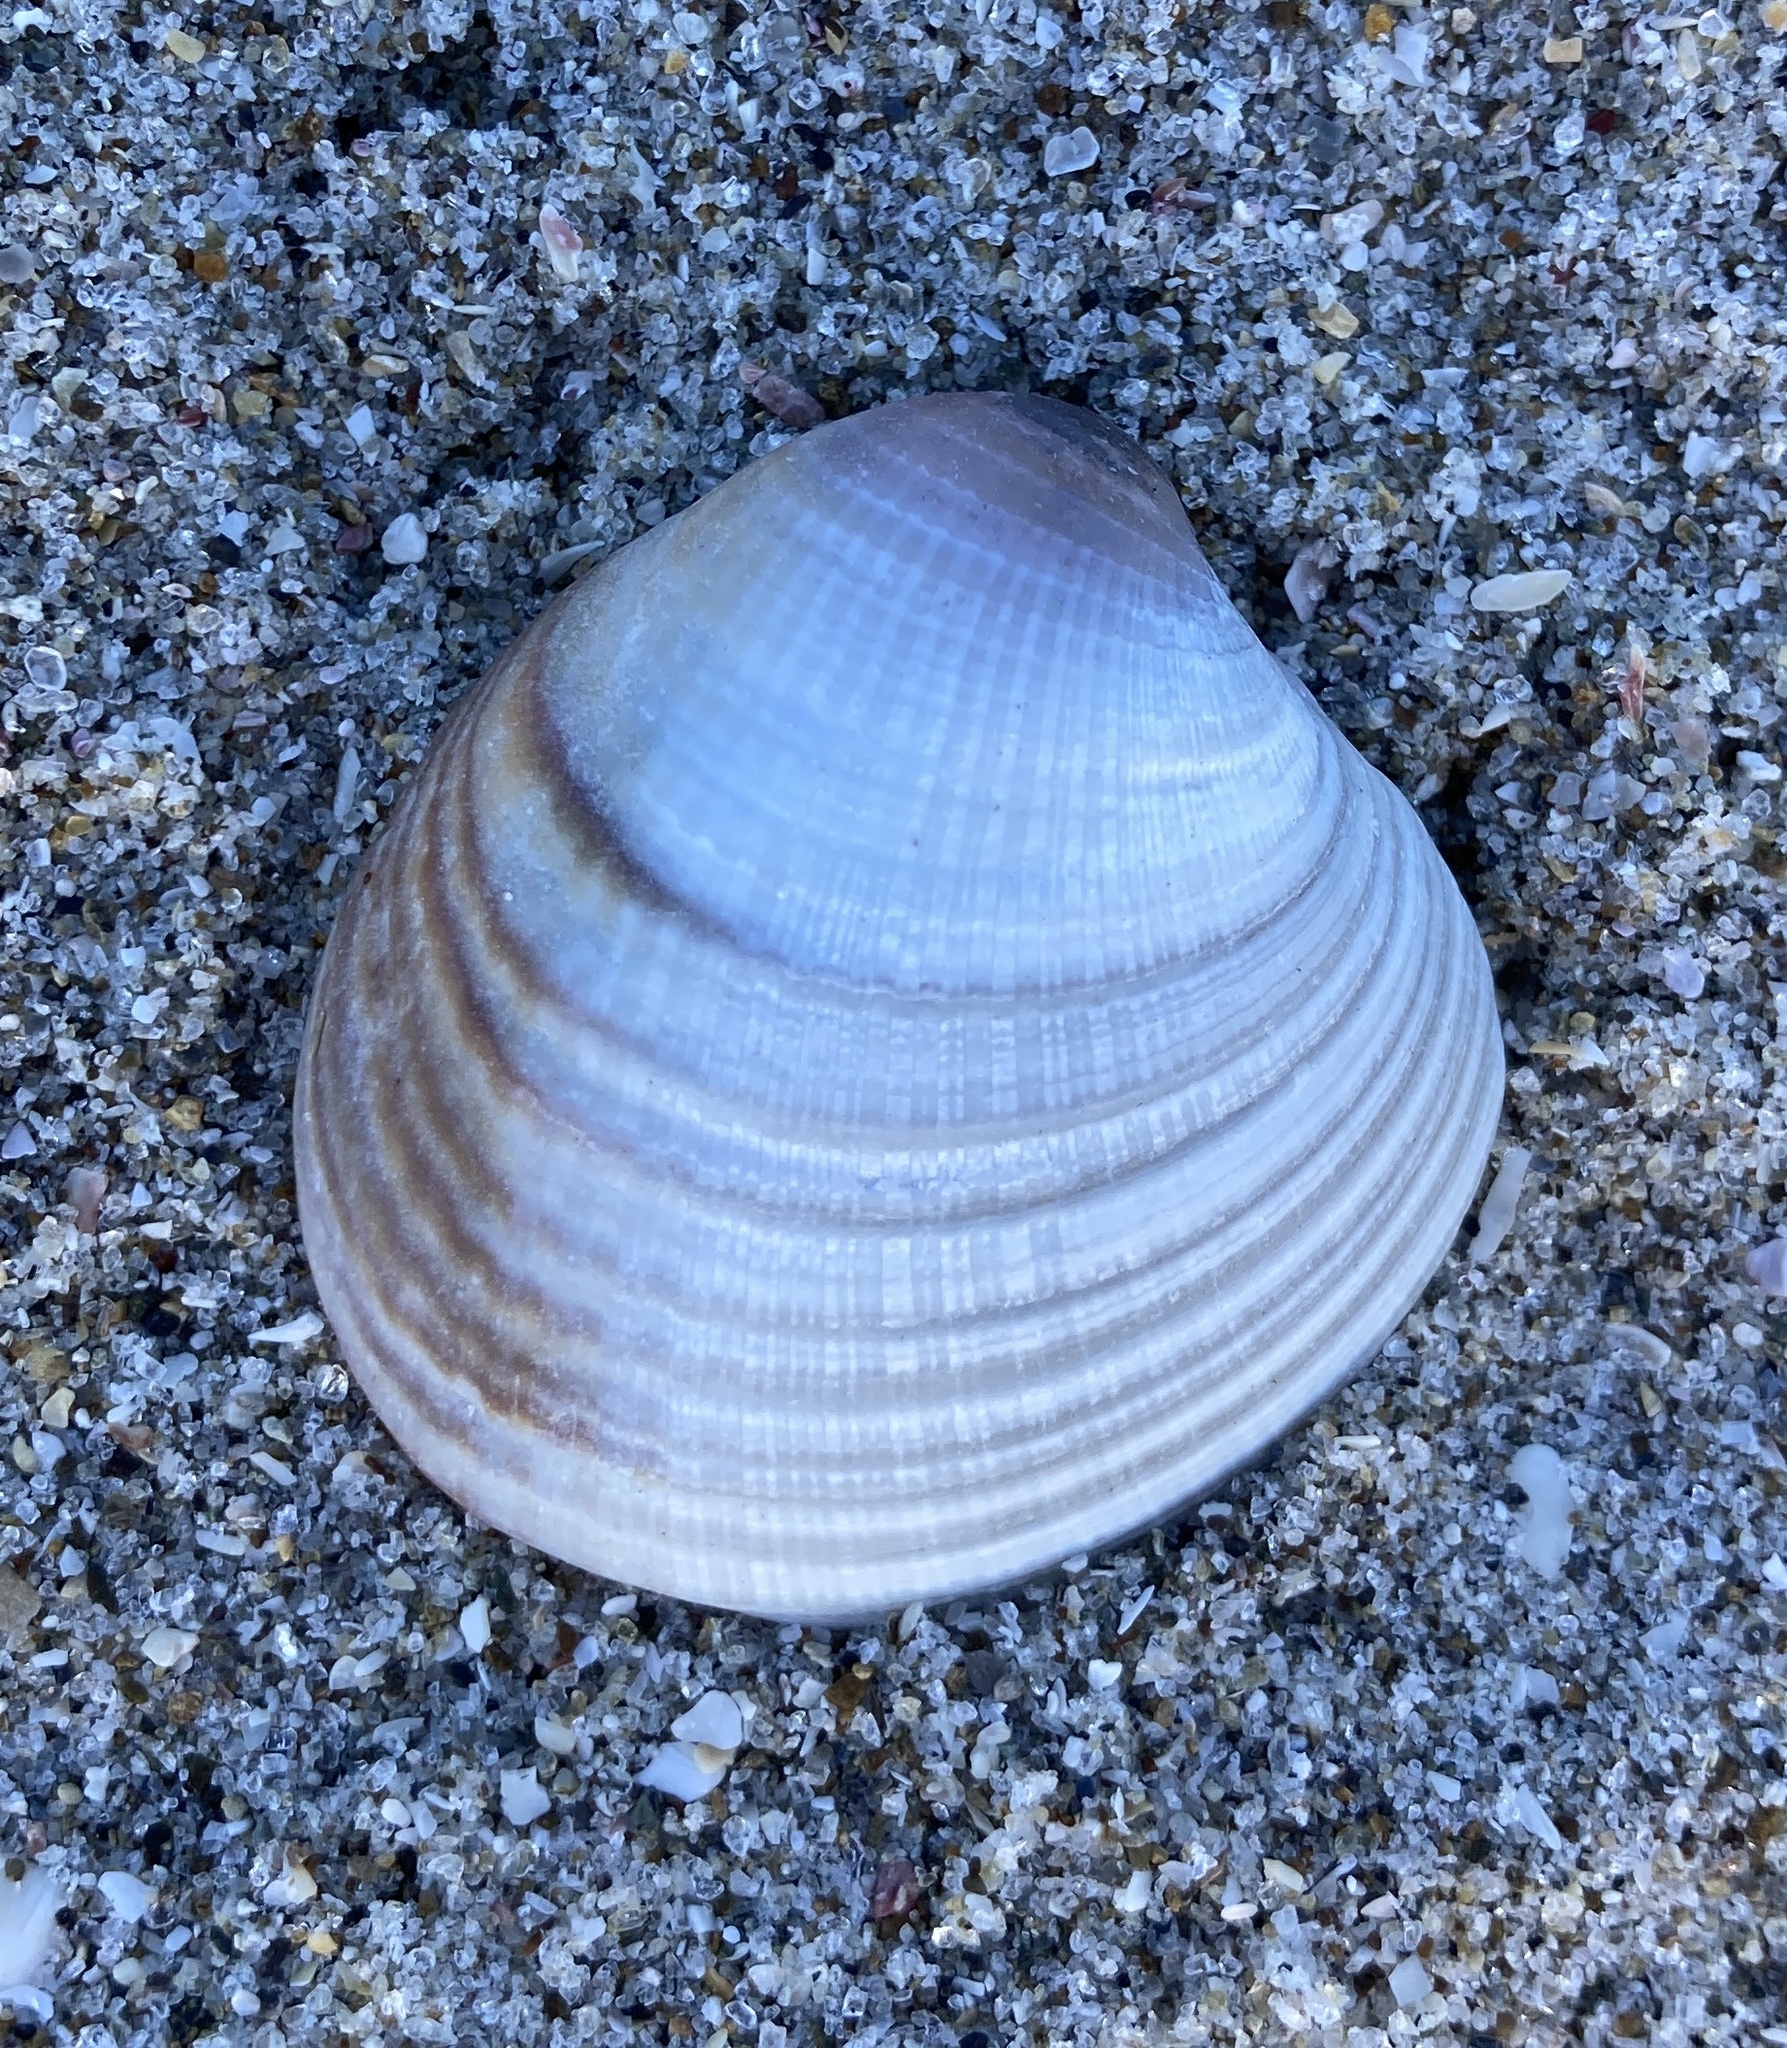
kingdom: Animalia
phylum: Mollusca
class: Bivalvia
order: Venerida
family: Veneridae
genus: Austrovenus
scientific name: Austrovenus stutchburyi
